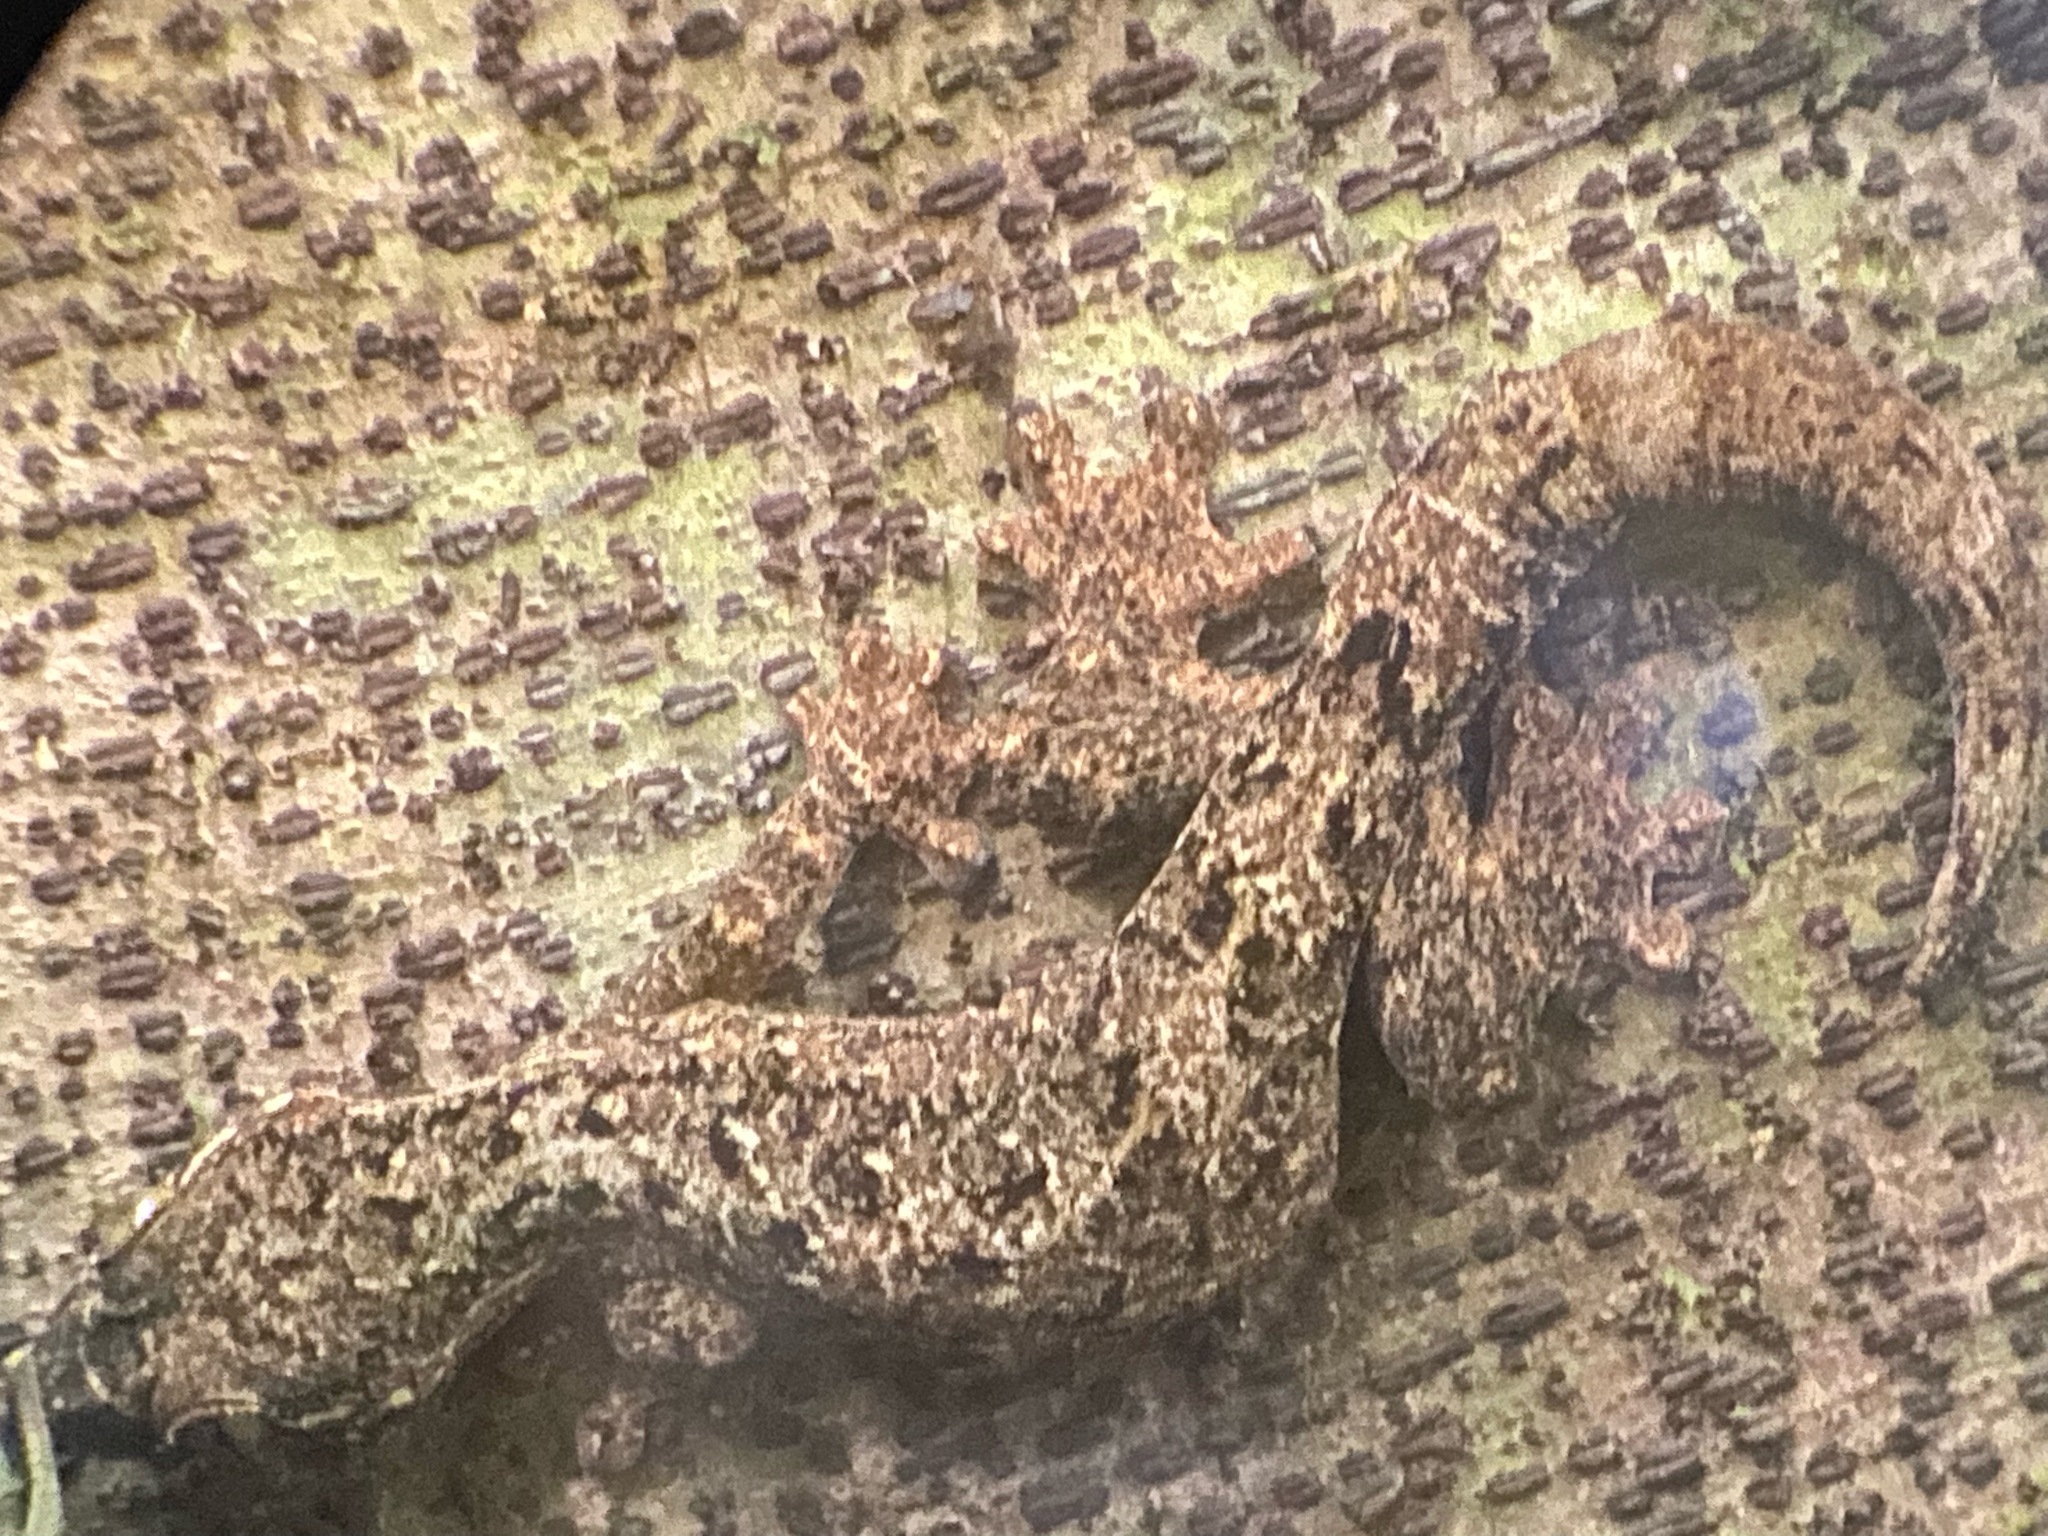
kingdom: Animalia
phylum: Chordata
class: Squamata
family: Phyllodactylidae
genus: Thecadactylus
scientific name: Thecadactylus rapicauda
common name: Turnip-tailed gecko
